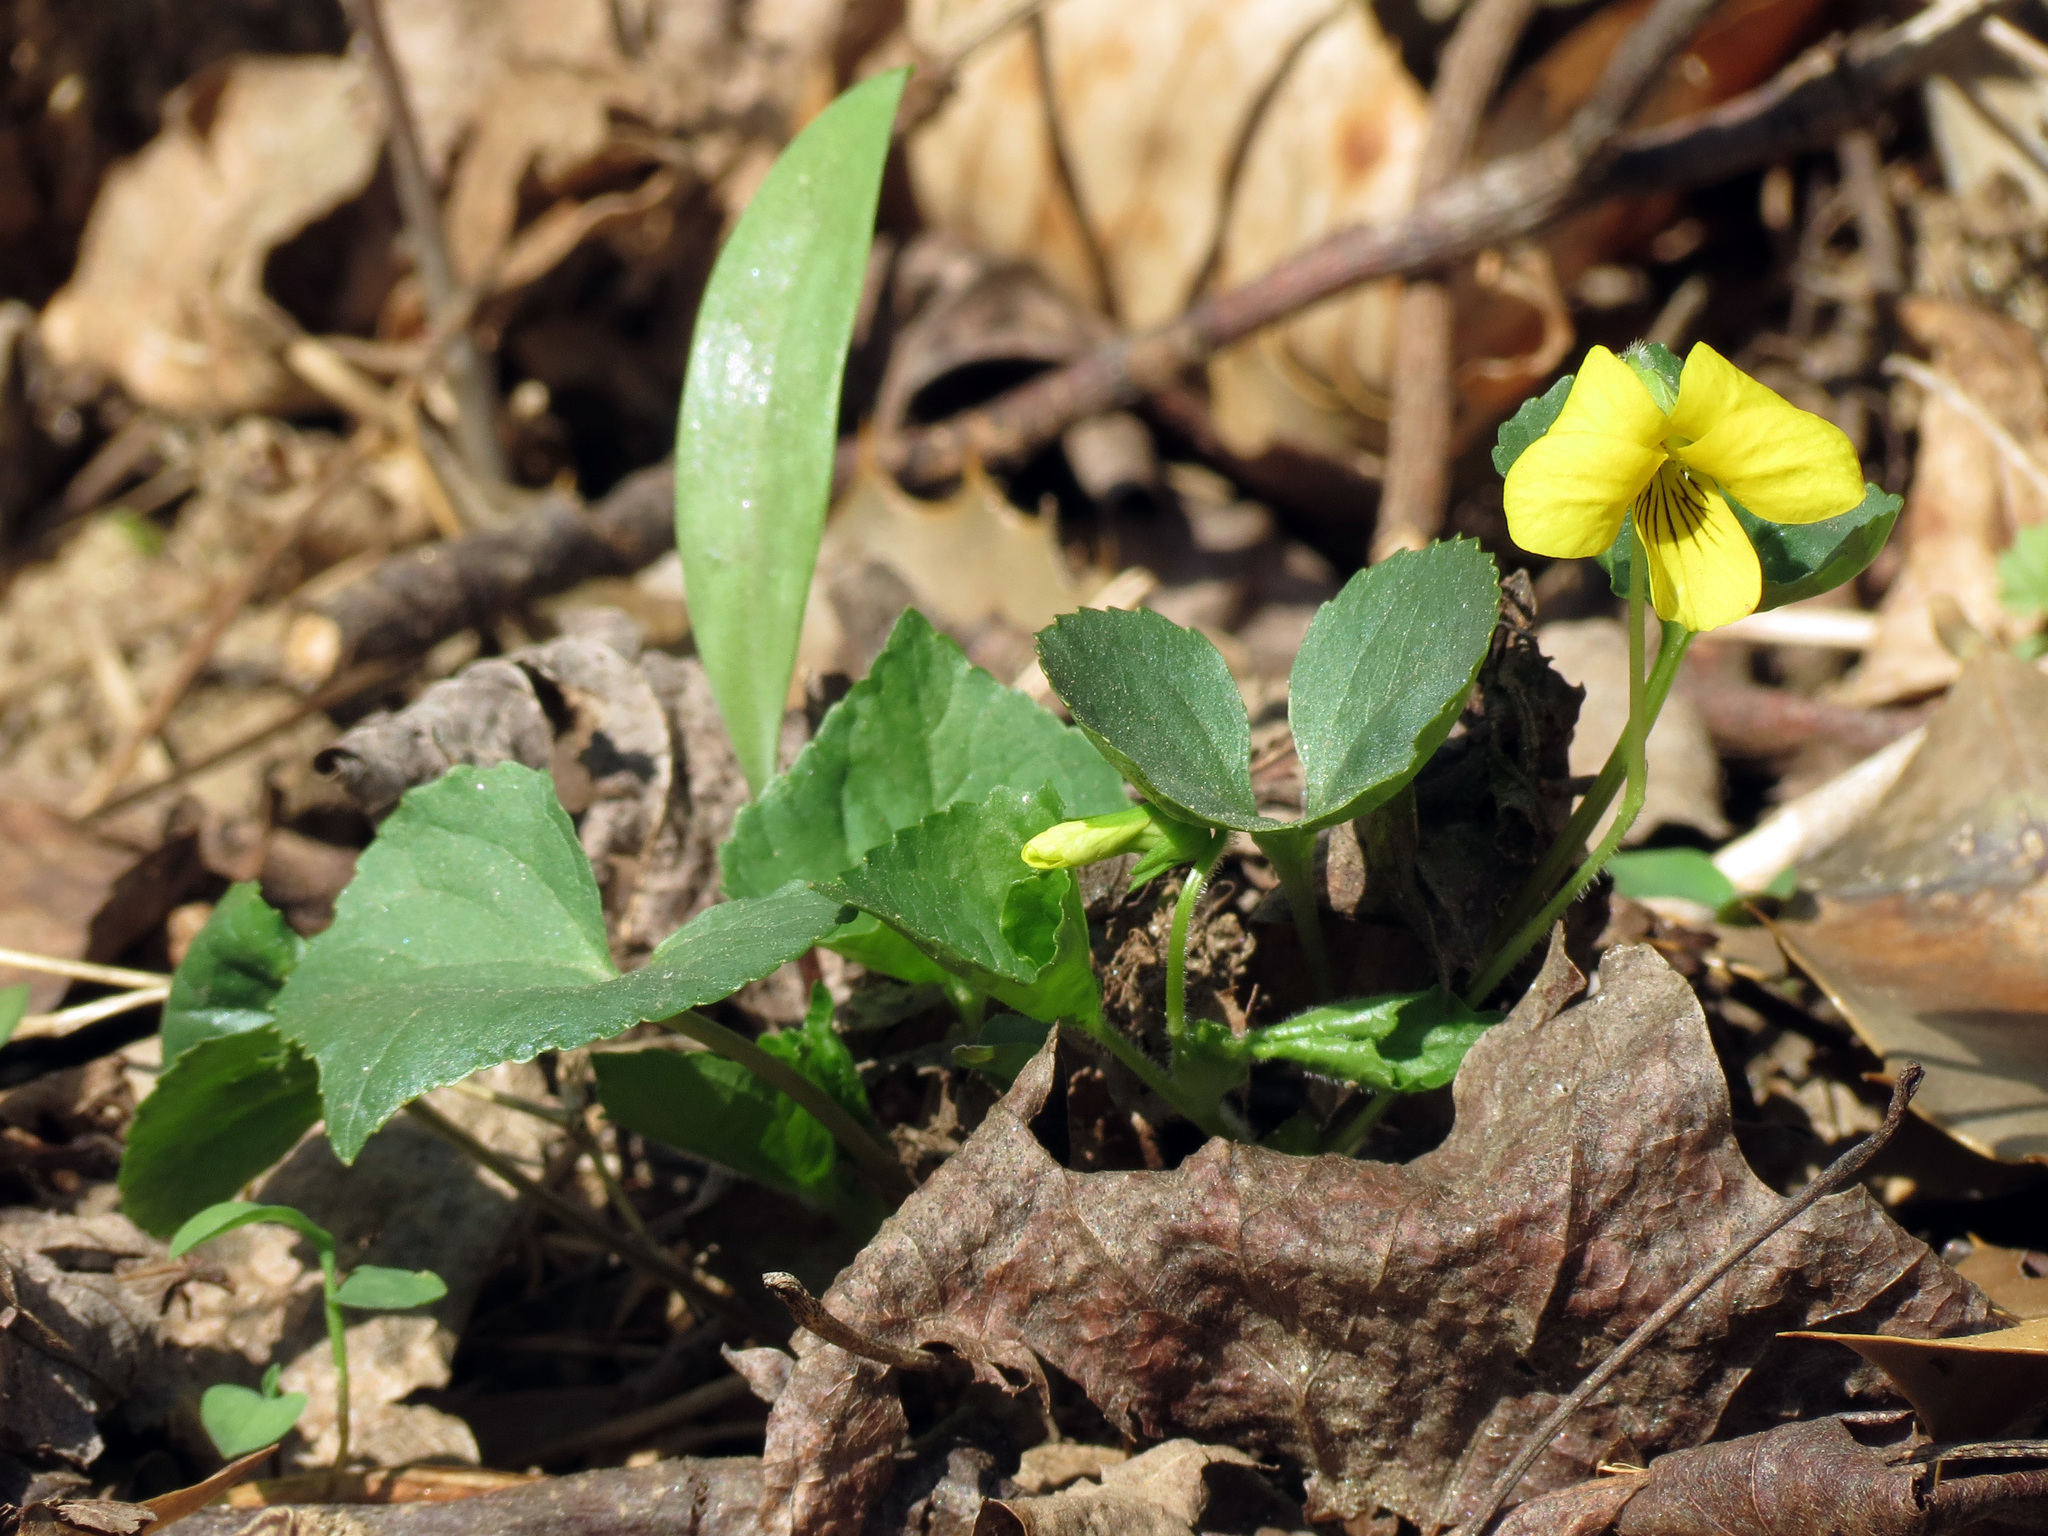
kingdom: Plantae
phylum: Tracheophyta
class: Magnoliopsida
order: Malpighiales
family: Violaceae
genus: Viola
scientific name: Viola eriocarpa
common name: Smooth yellow violet
